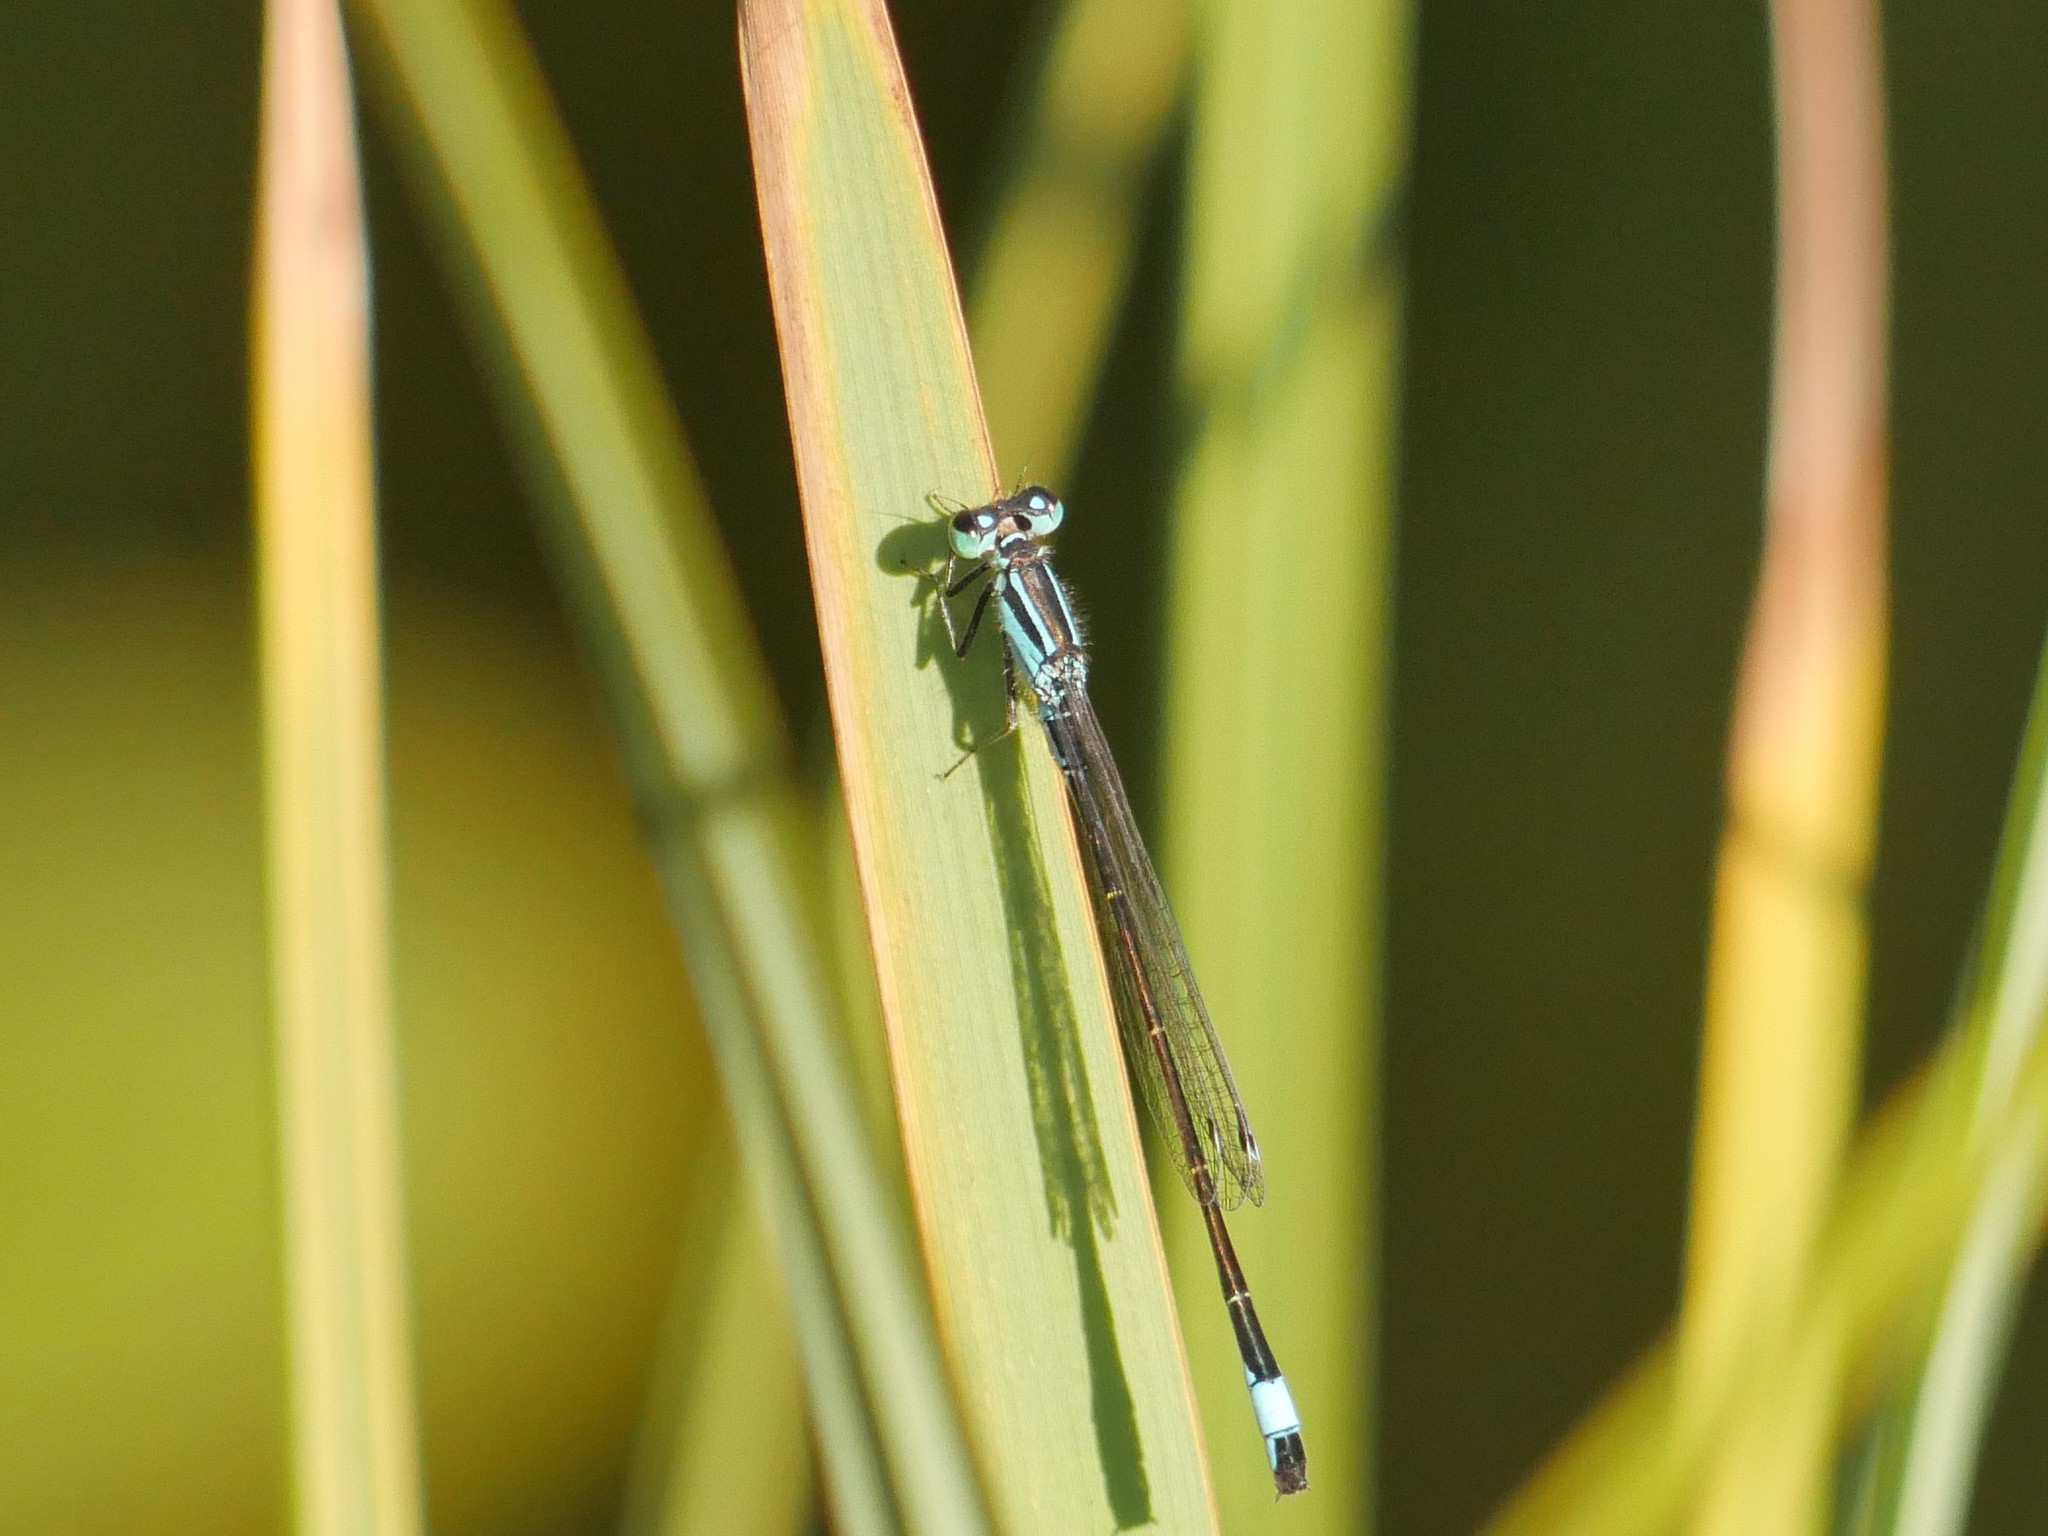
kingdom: Animalia
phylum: Arthropoda
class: Insecta
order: Odonata
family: Coenagrionidae
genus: Ischnura
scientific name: Ischnura elegans
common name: Blue-tailed damselfly
